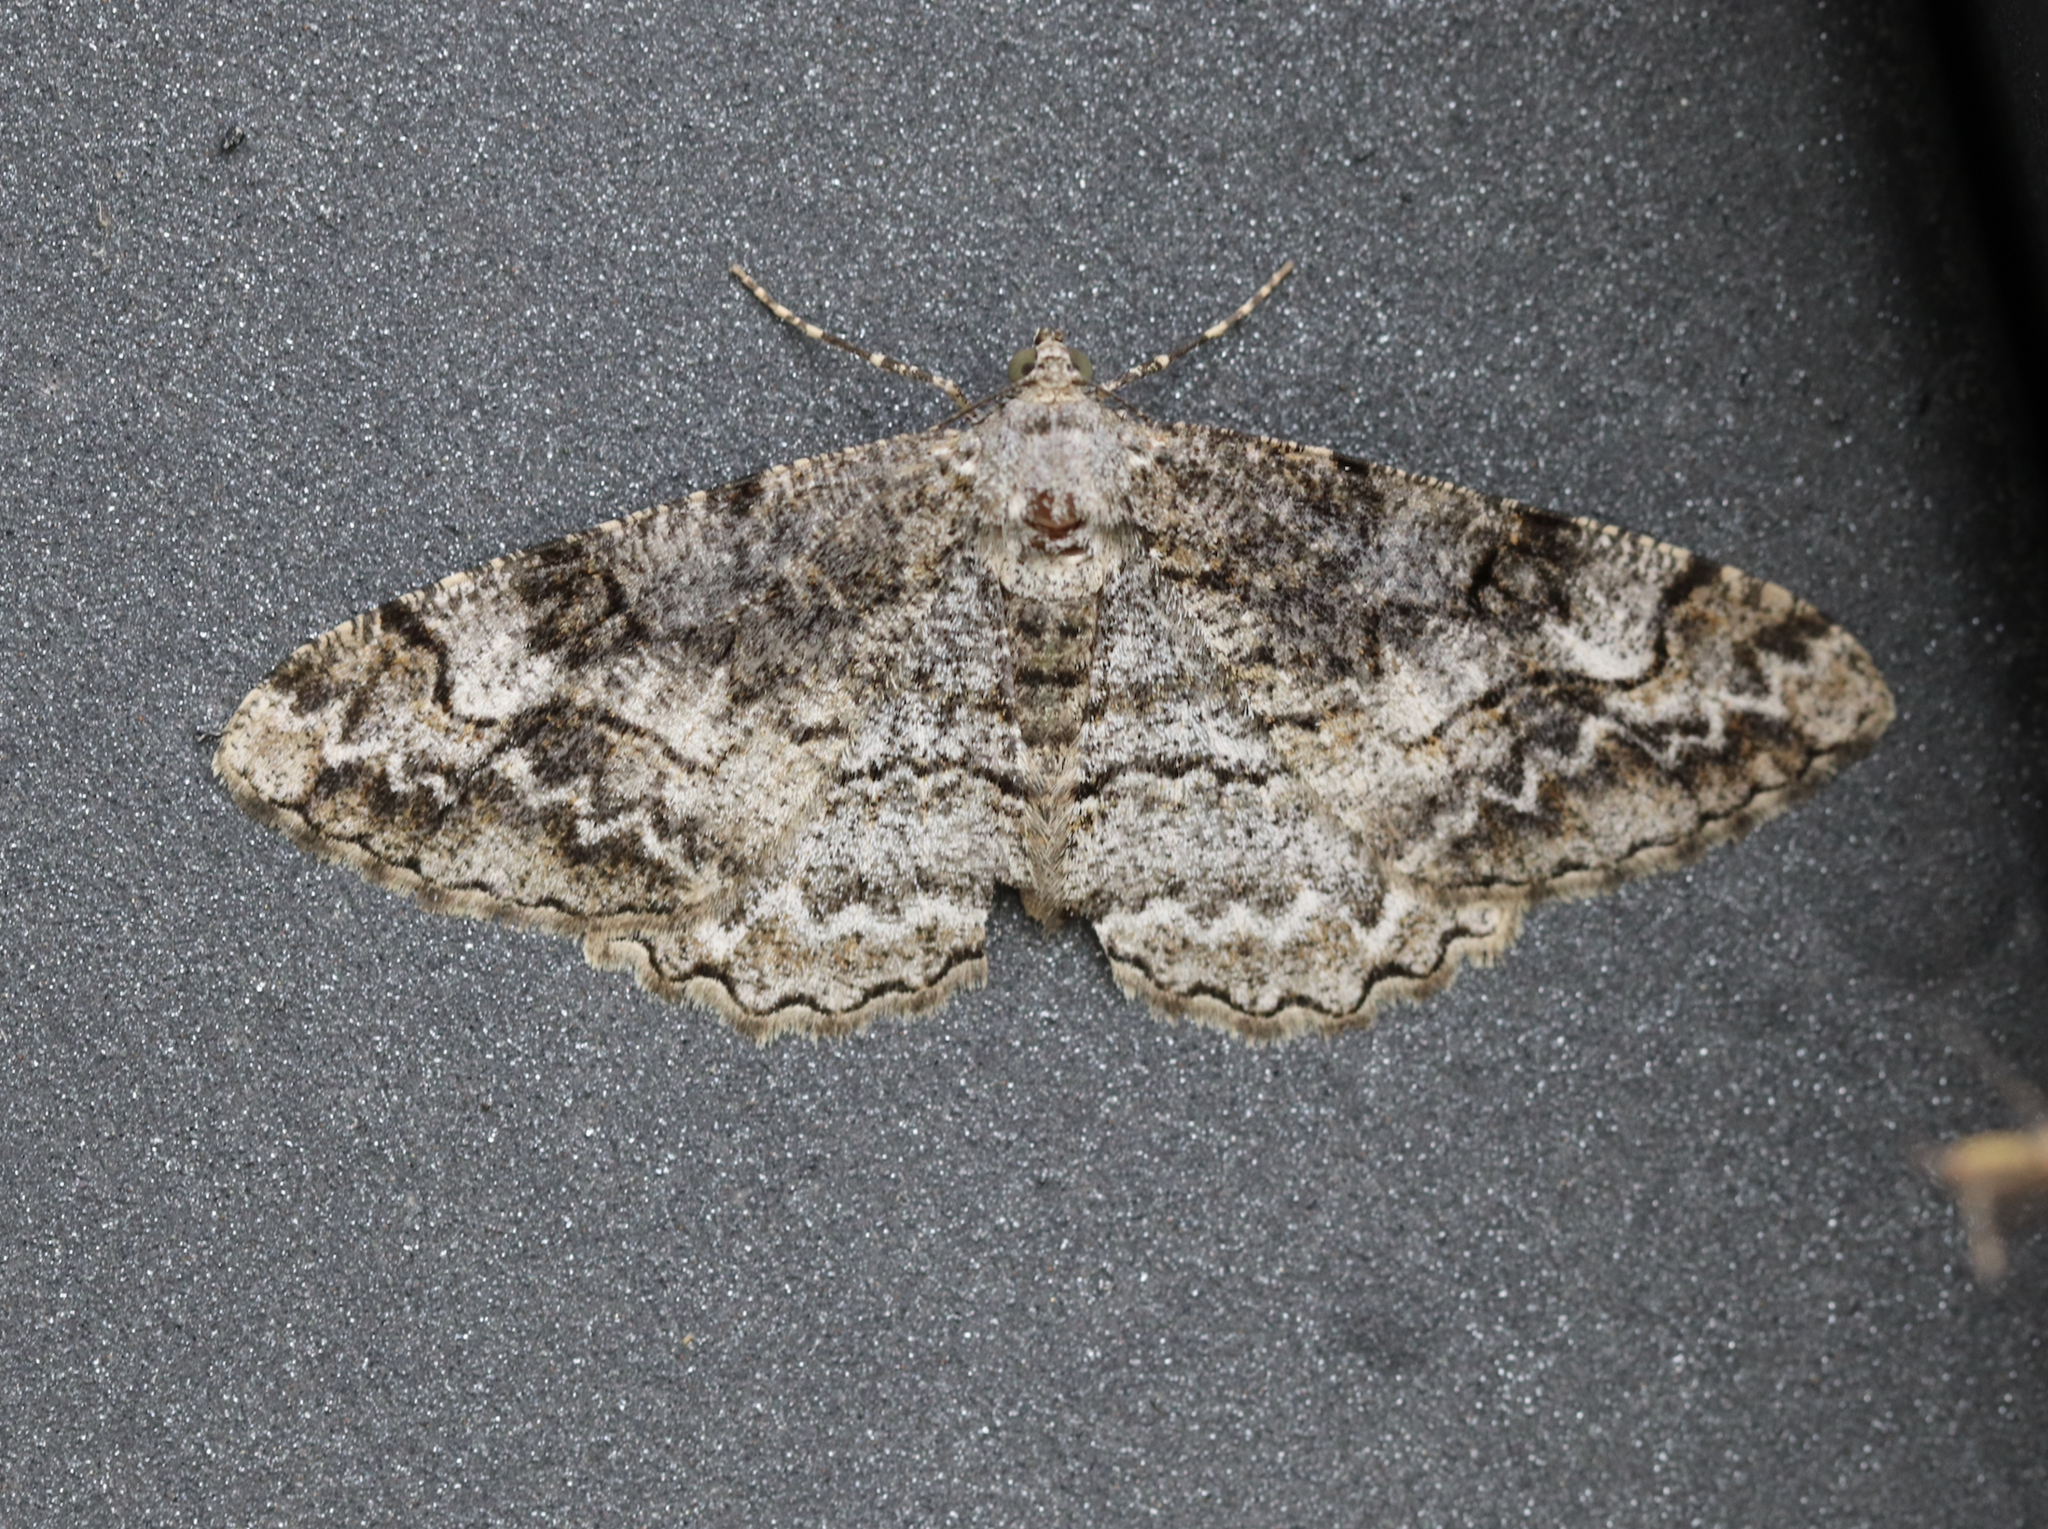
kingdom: Animalia
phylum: Arthropoda
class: Insecta
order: Lepidoptera
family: Geometridae
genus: Alcis
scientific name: Alcis repandata
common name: Mottled beauty
